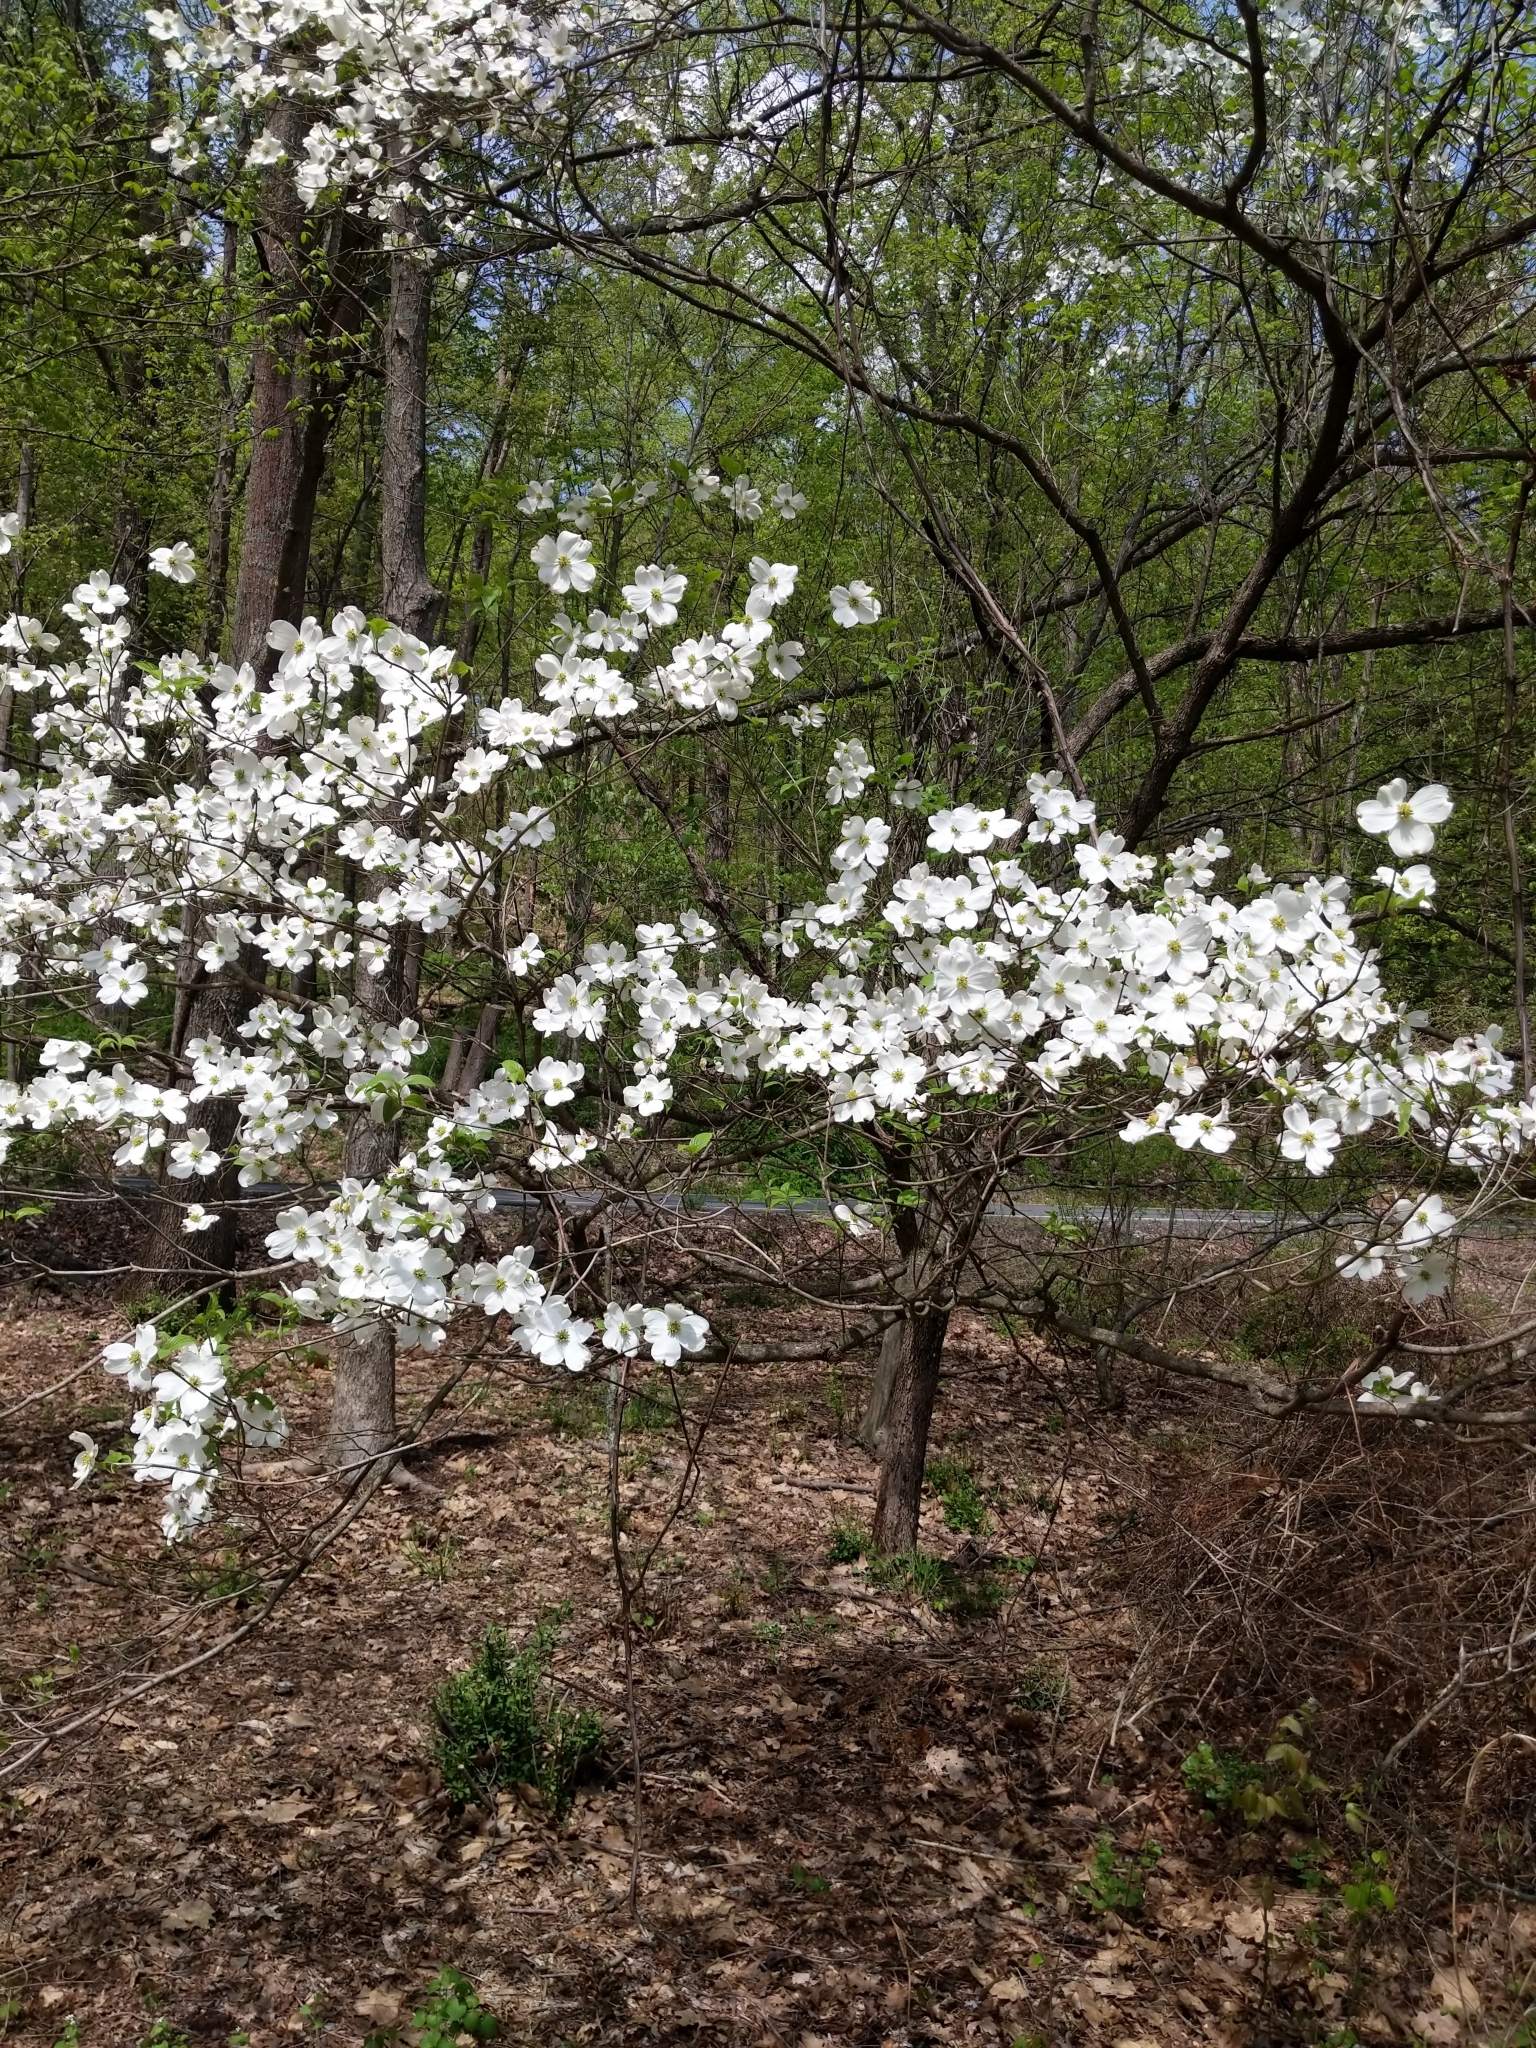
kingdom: Plantae
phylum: Tracheophyta
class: Magnoliopsida
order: Cornales
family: Cornaceae
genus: Cornus
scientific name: Cornus florida
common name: Flowering dogwood
